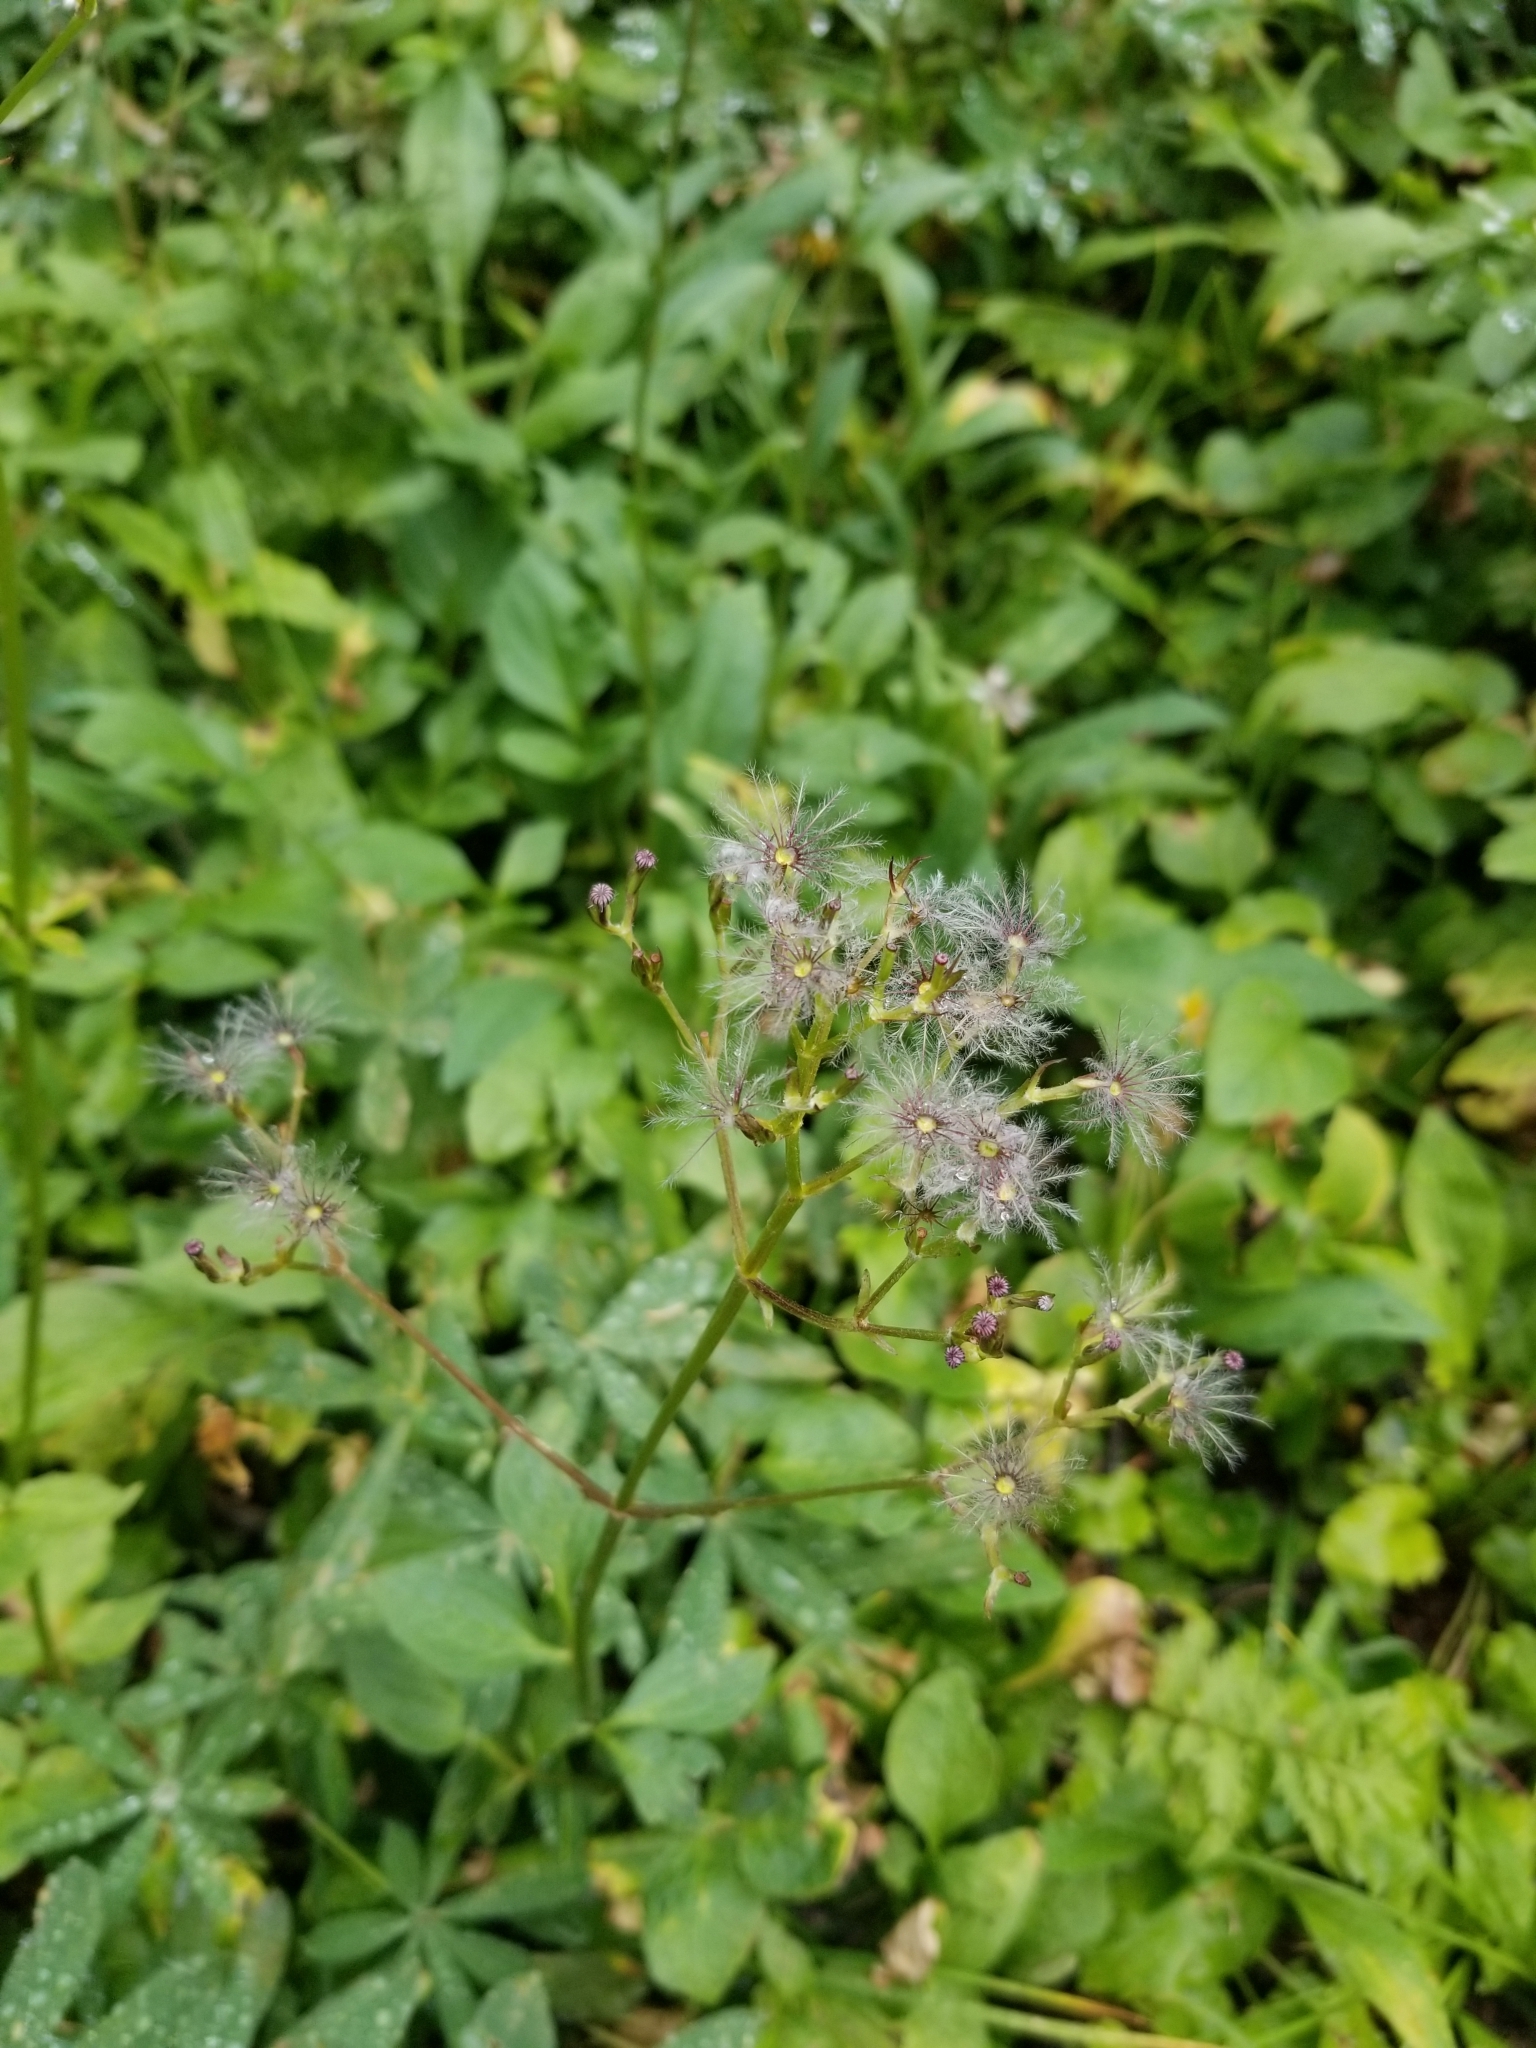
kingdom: Plantae
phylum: Tracheophyta
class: Magnoliopsida
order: Dipsacales
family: Caprifoliaceae
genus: Valeriana
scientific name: Valeriana sitchensis
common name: Pacific valerian
